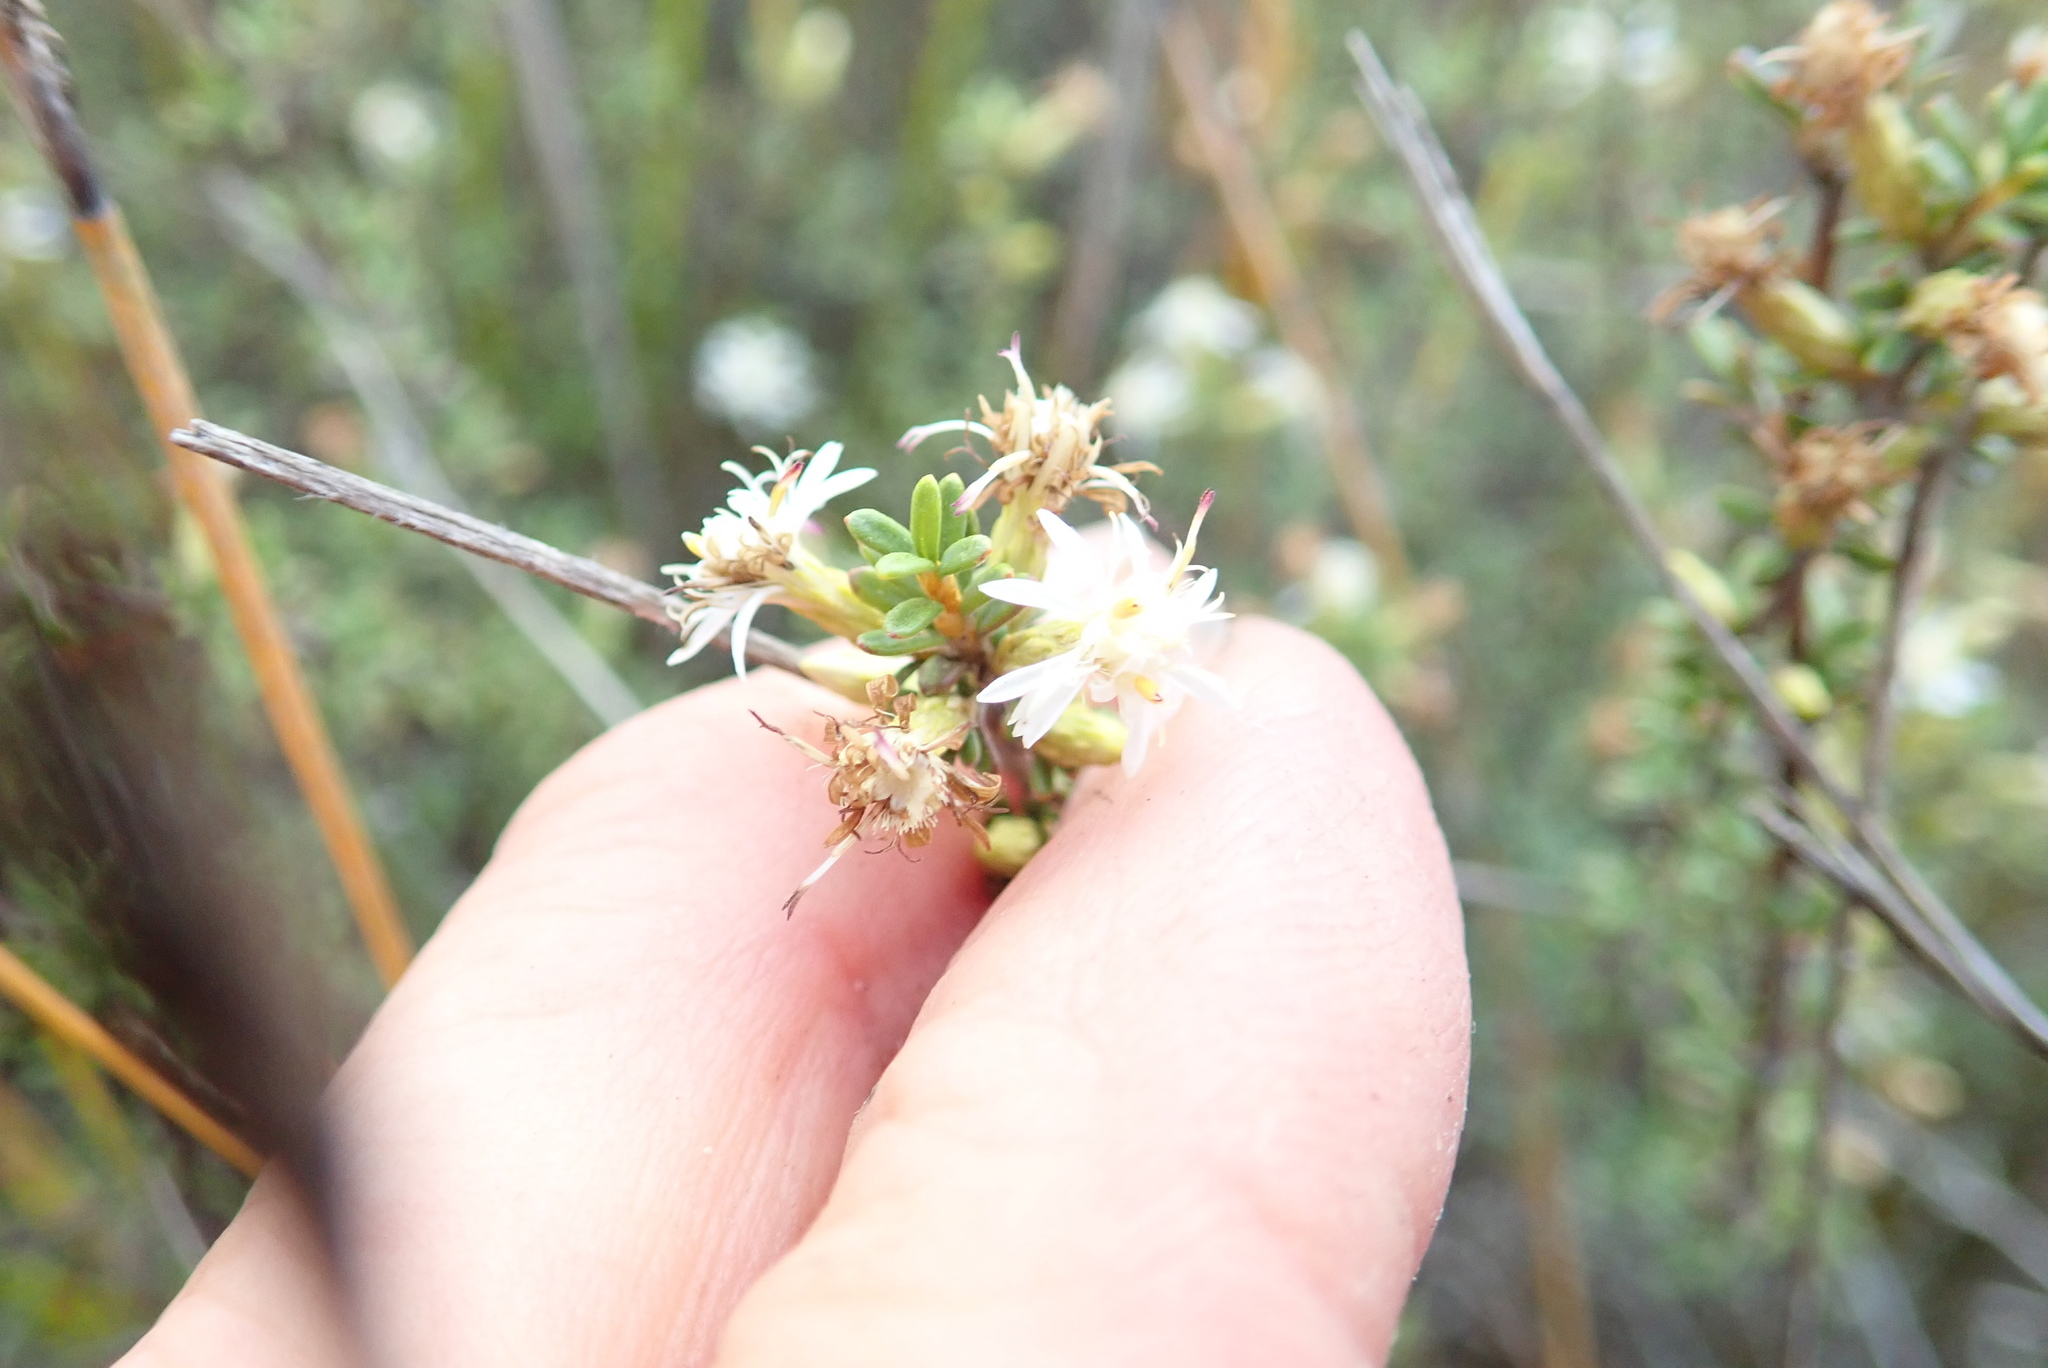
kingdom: Plantae
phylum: Tracheophyta
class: Magnoliopsida
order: Asterales
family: Asteraceae
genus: Olearia
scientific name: Olearia solandri
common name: Coastal daisybush
